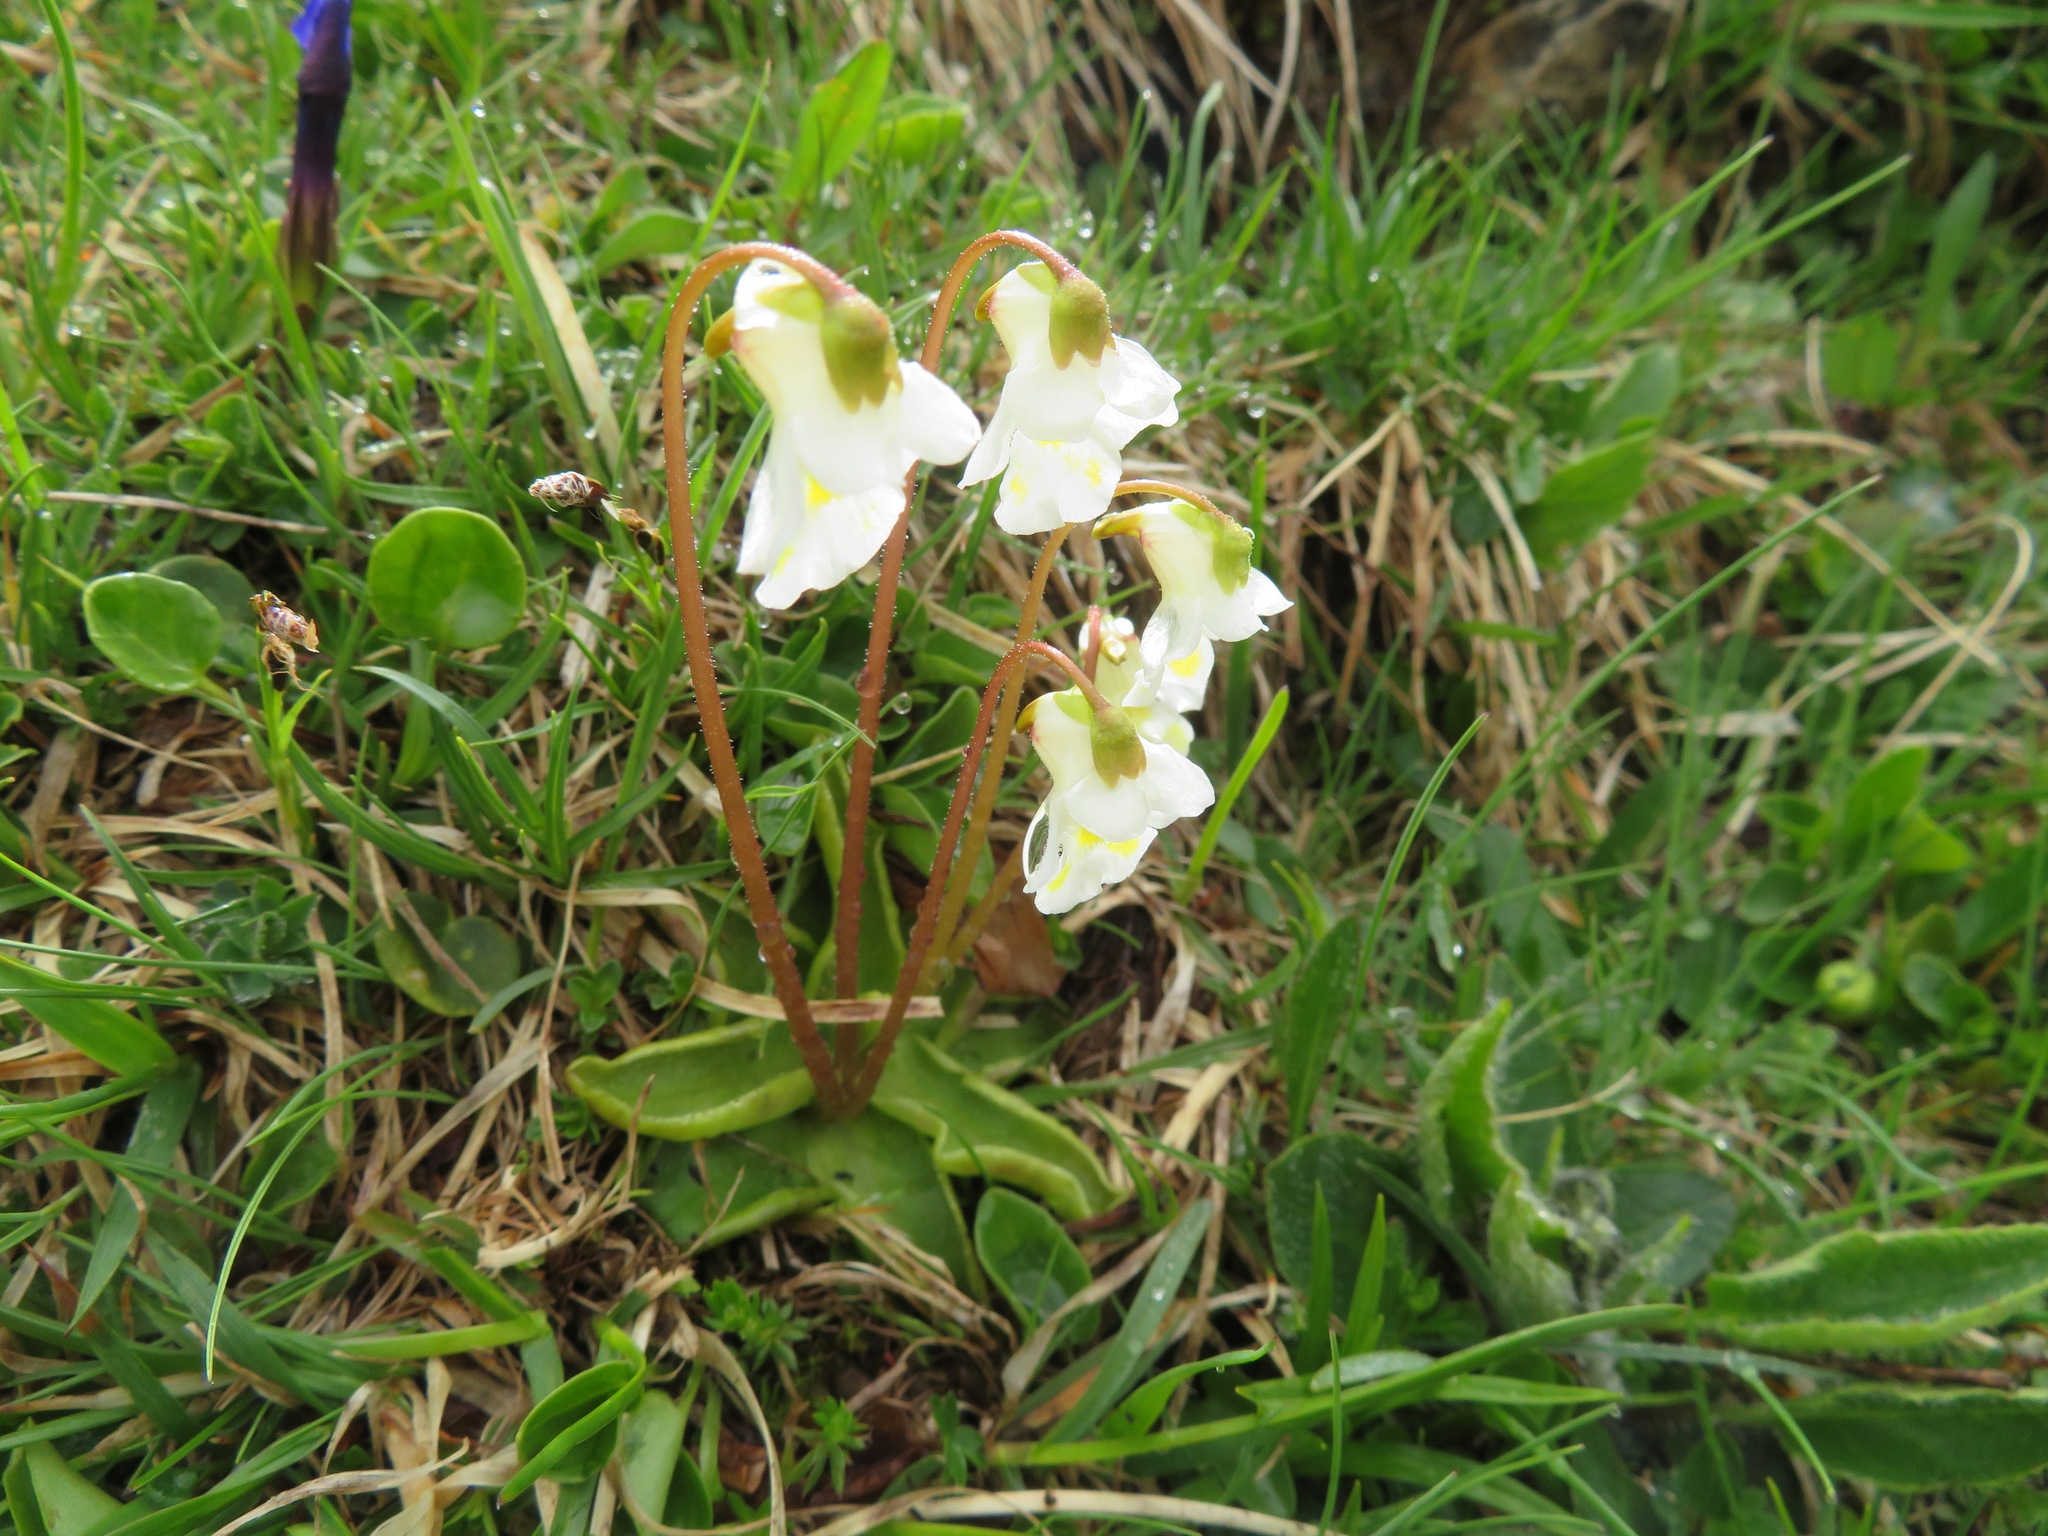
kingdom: Plantae
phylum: Tracheophyta
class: Magnoliopsida
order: Lamiales
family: Lentibulariaceae
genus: Pinguicula
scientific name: Pinguicula alpina
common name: Alpine butterwort
